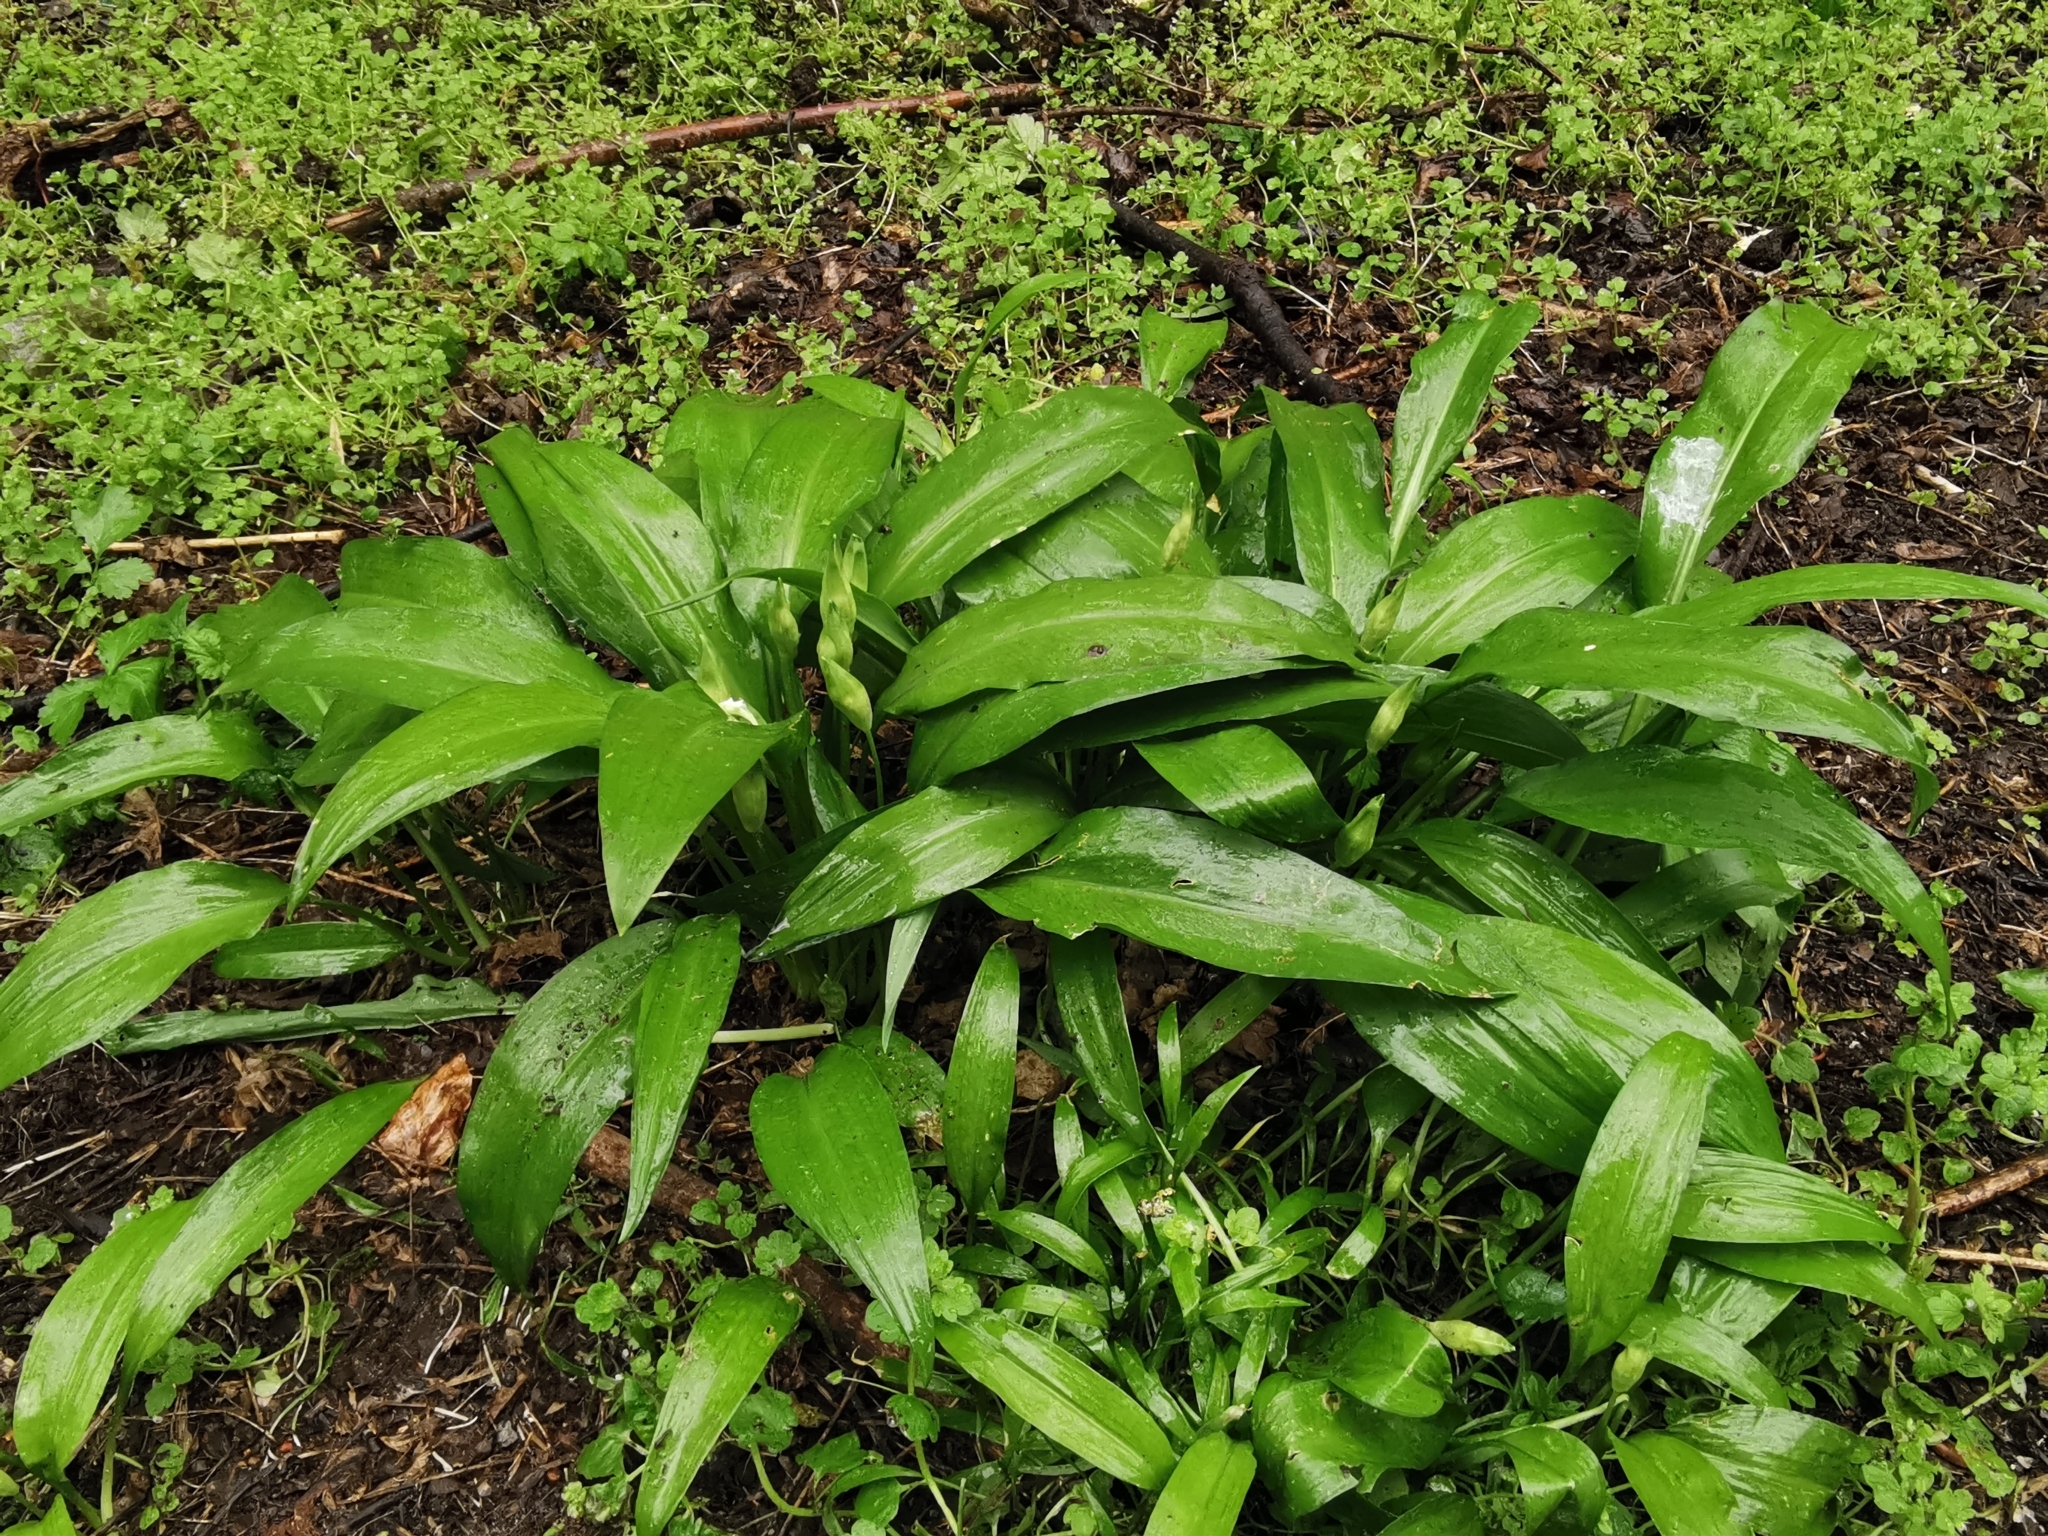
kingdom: Plantae
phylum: Tracheophyta
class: Liliopsida
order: Asparagales
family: Amaryllidaceae
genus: Allium
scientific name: Allium ursinum
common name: Ramsons
